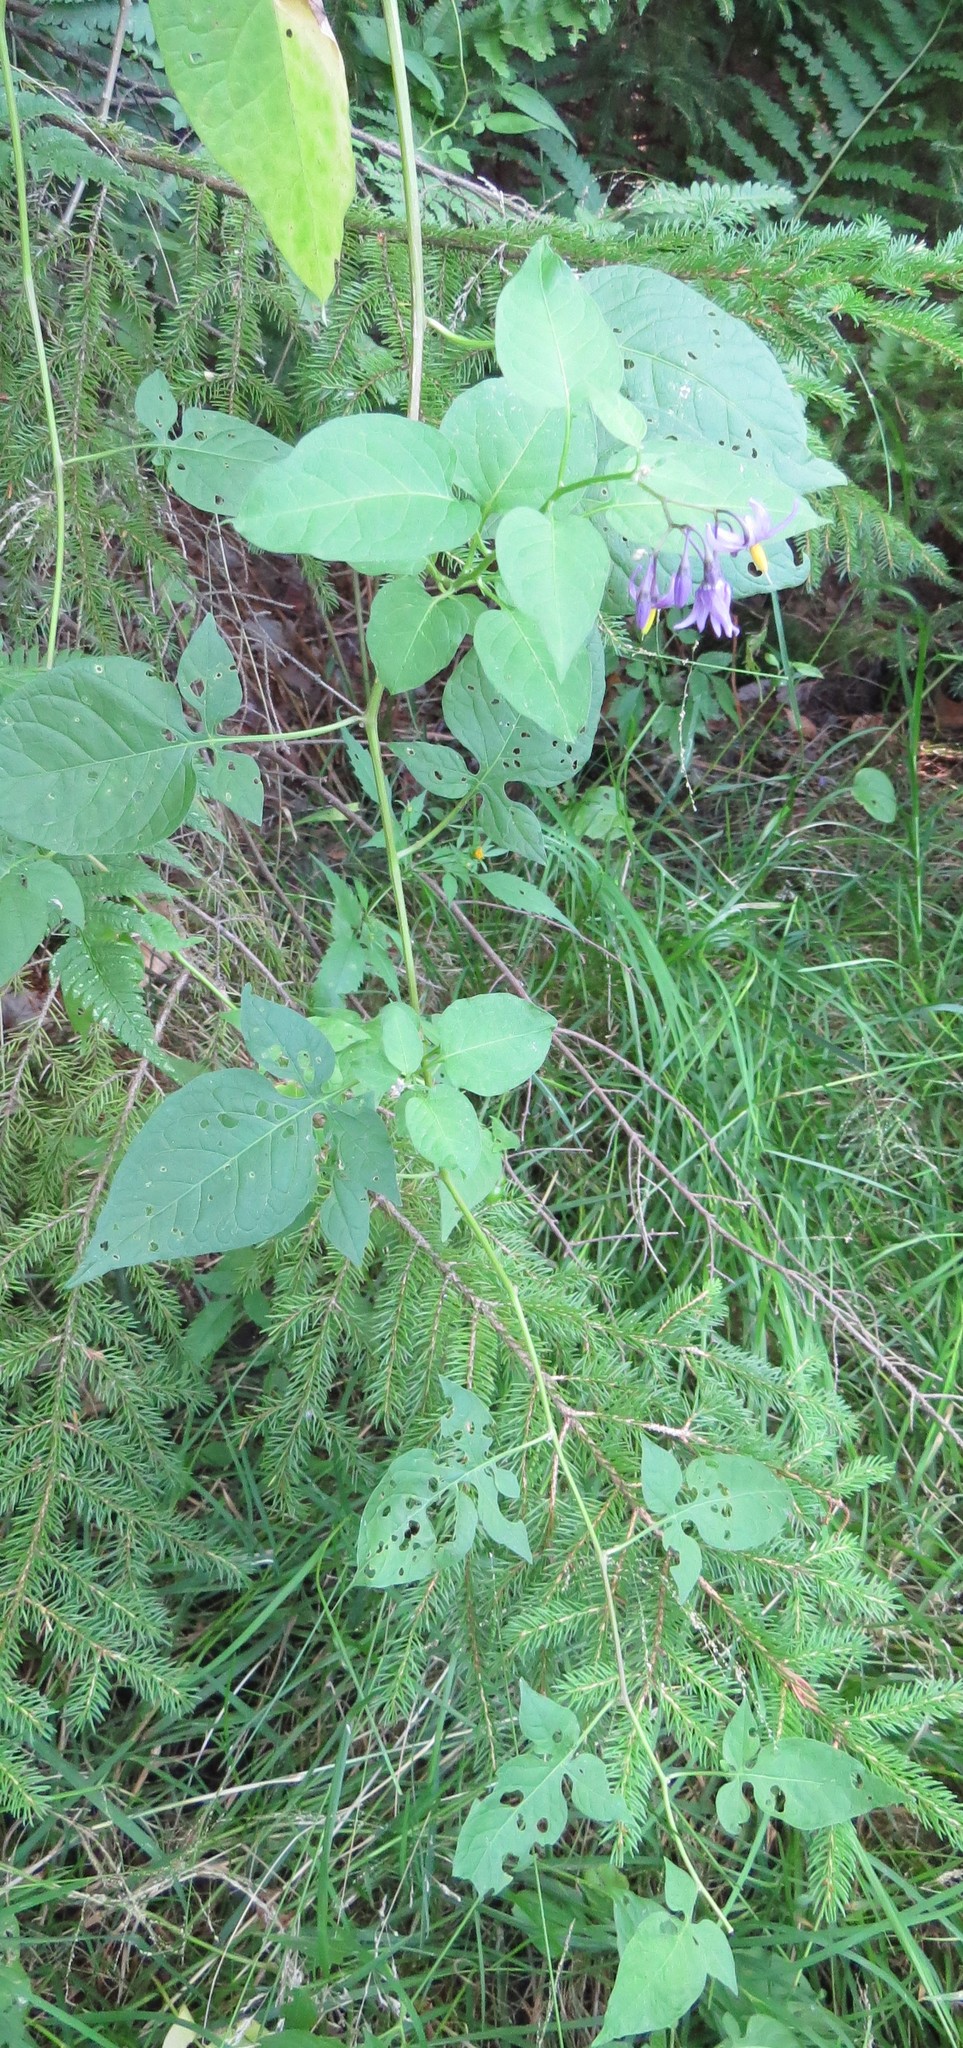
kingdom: Plantae
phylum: Tracheophyta
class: Magnoliopsida
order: Solanales
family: Solanaceae
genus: Solanum
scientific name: Solanum dulcamara
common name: Climbing nightshade
